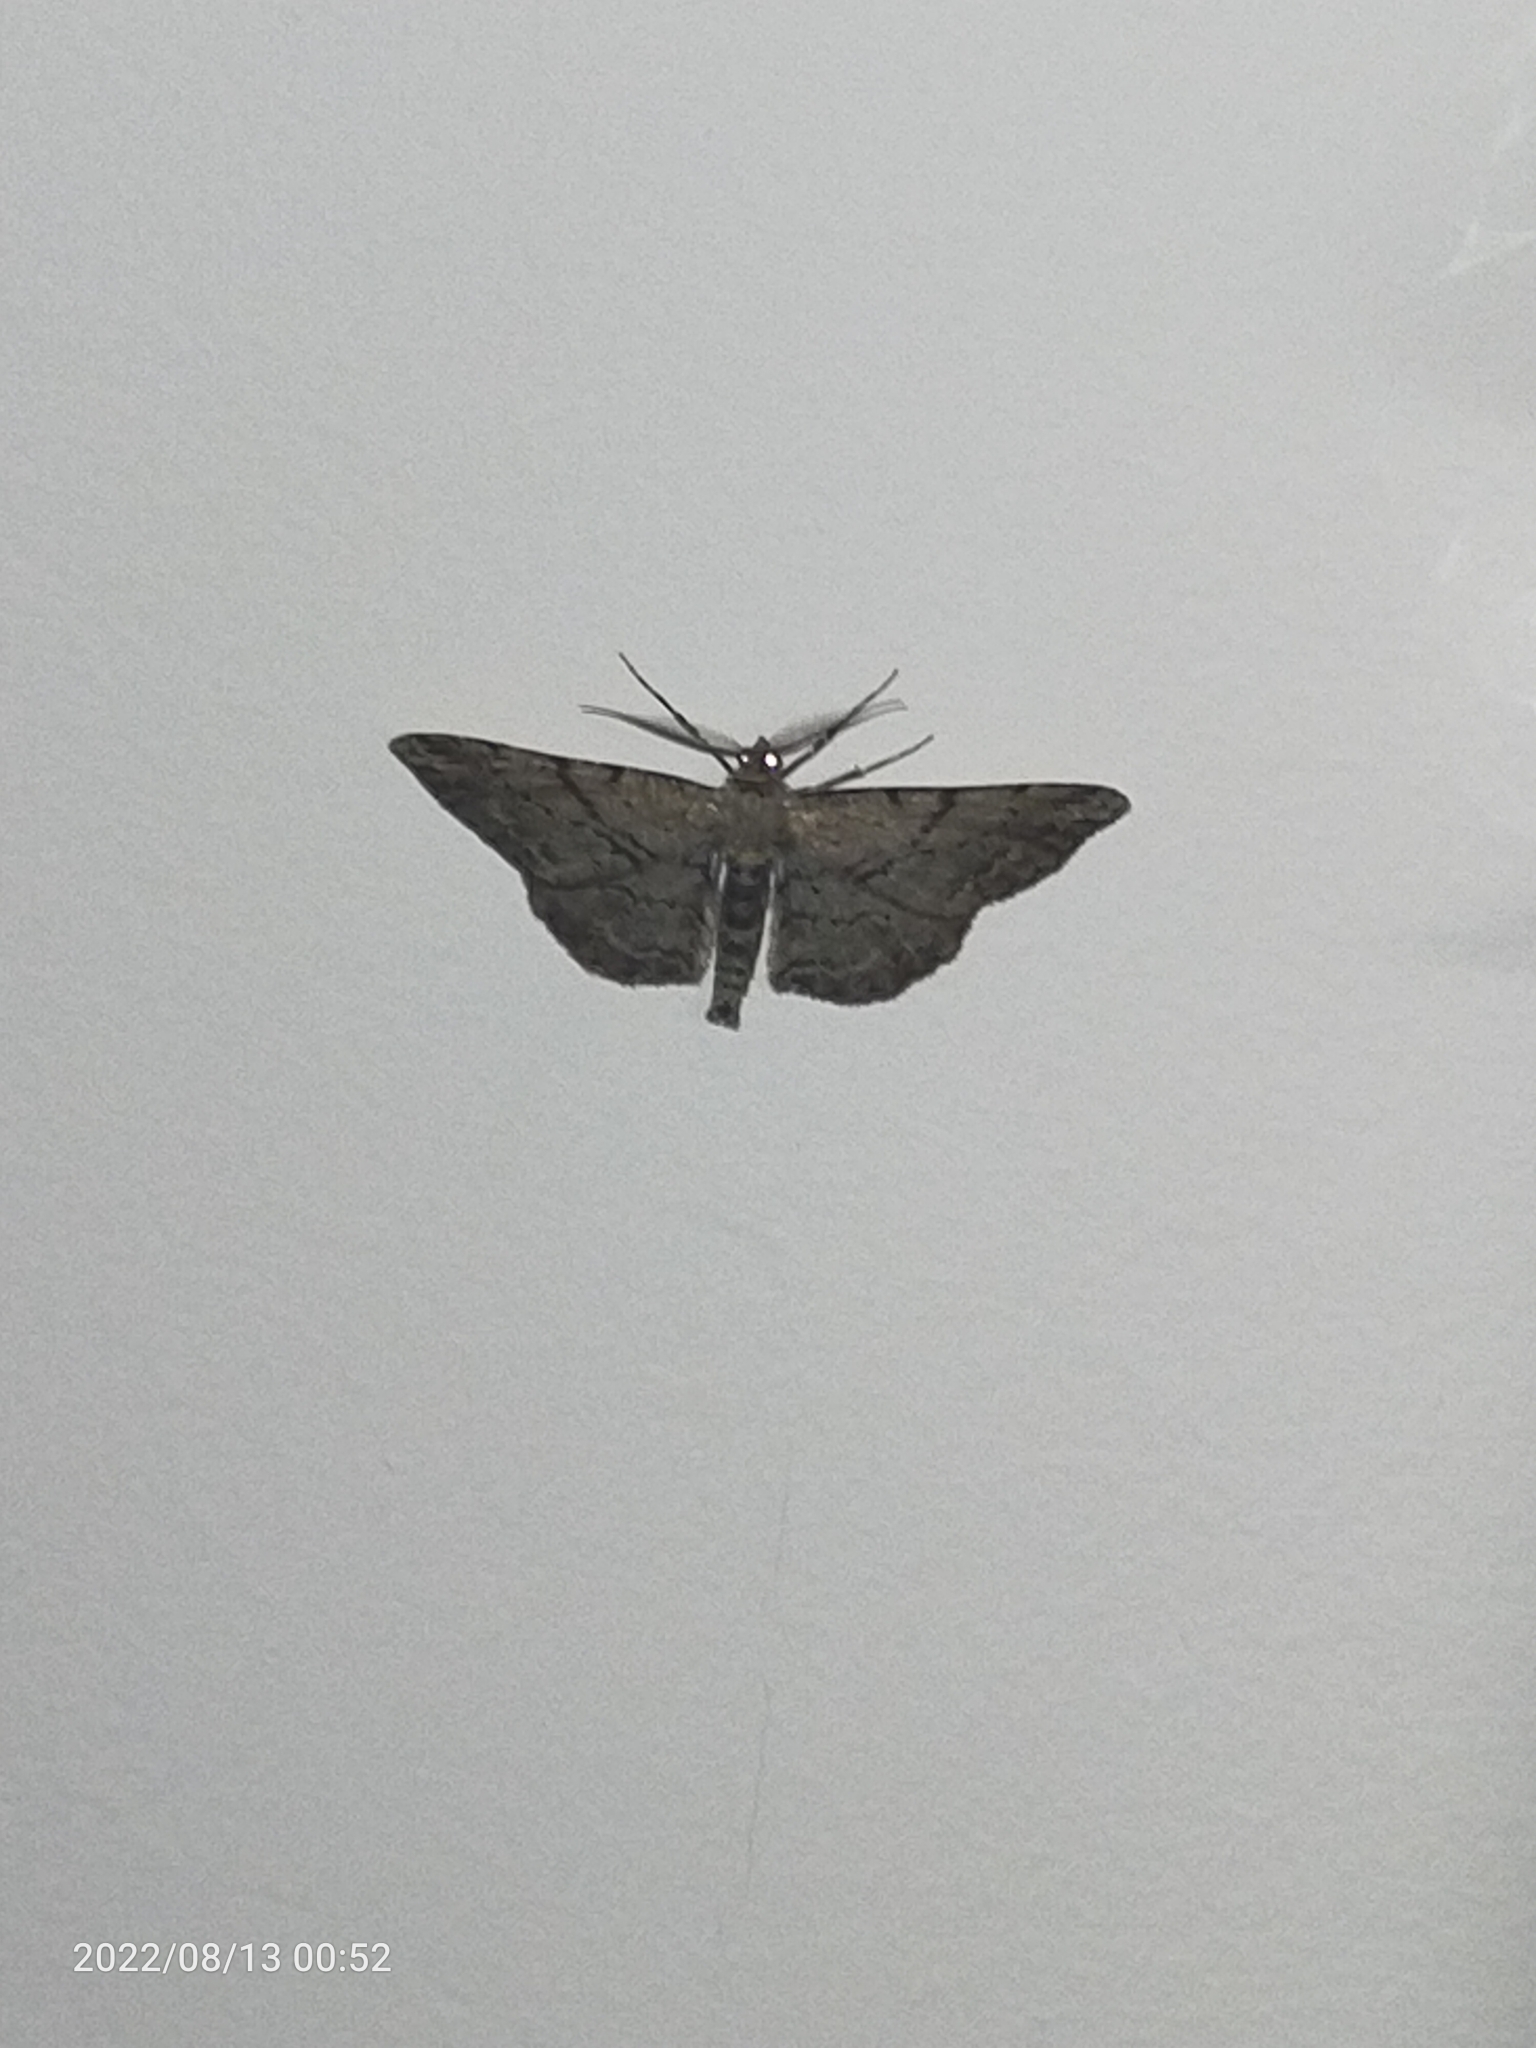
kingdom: Animalia
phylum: Arthropoda
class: Insecta
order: Lepidoptera
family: Geometridae
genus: Peribatodes
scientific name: Peribatodes rhomboidaria
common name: Willow beauty
